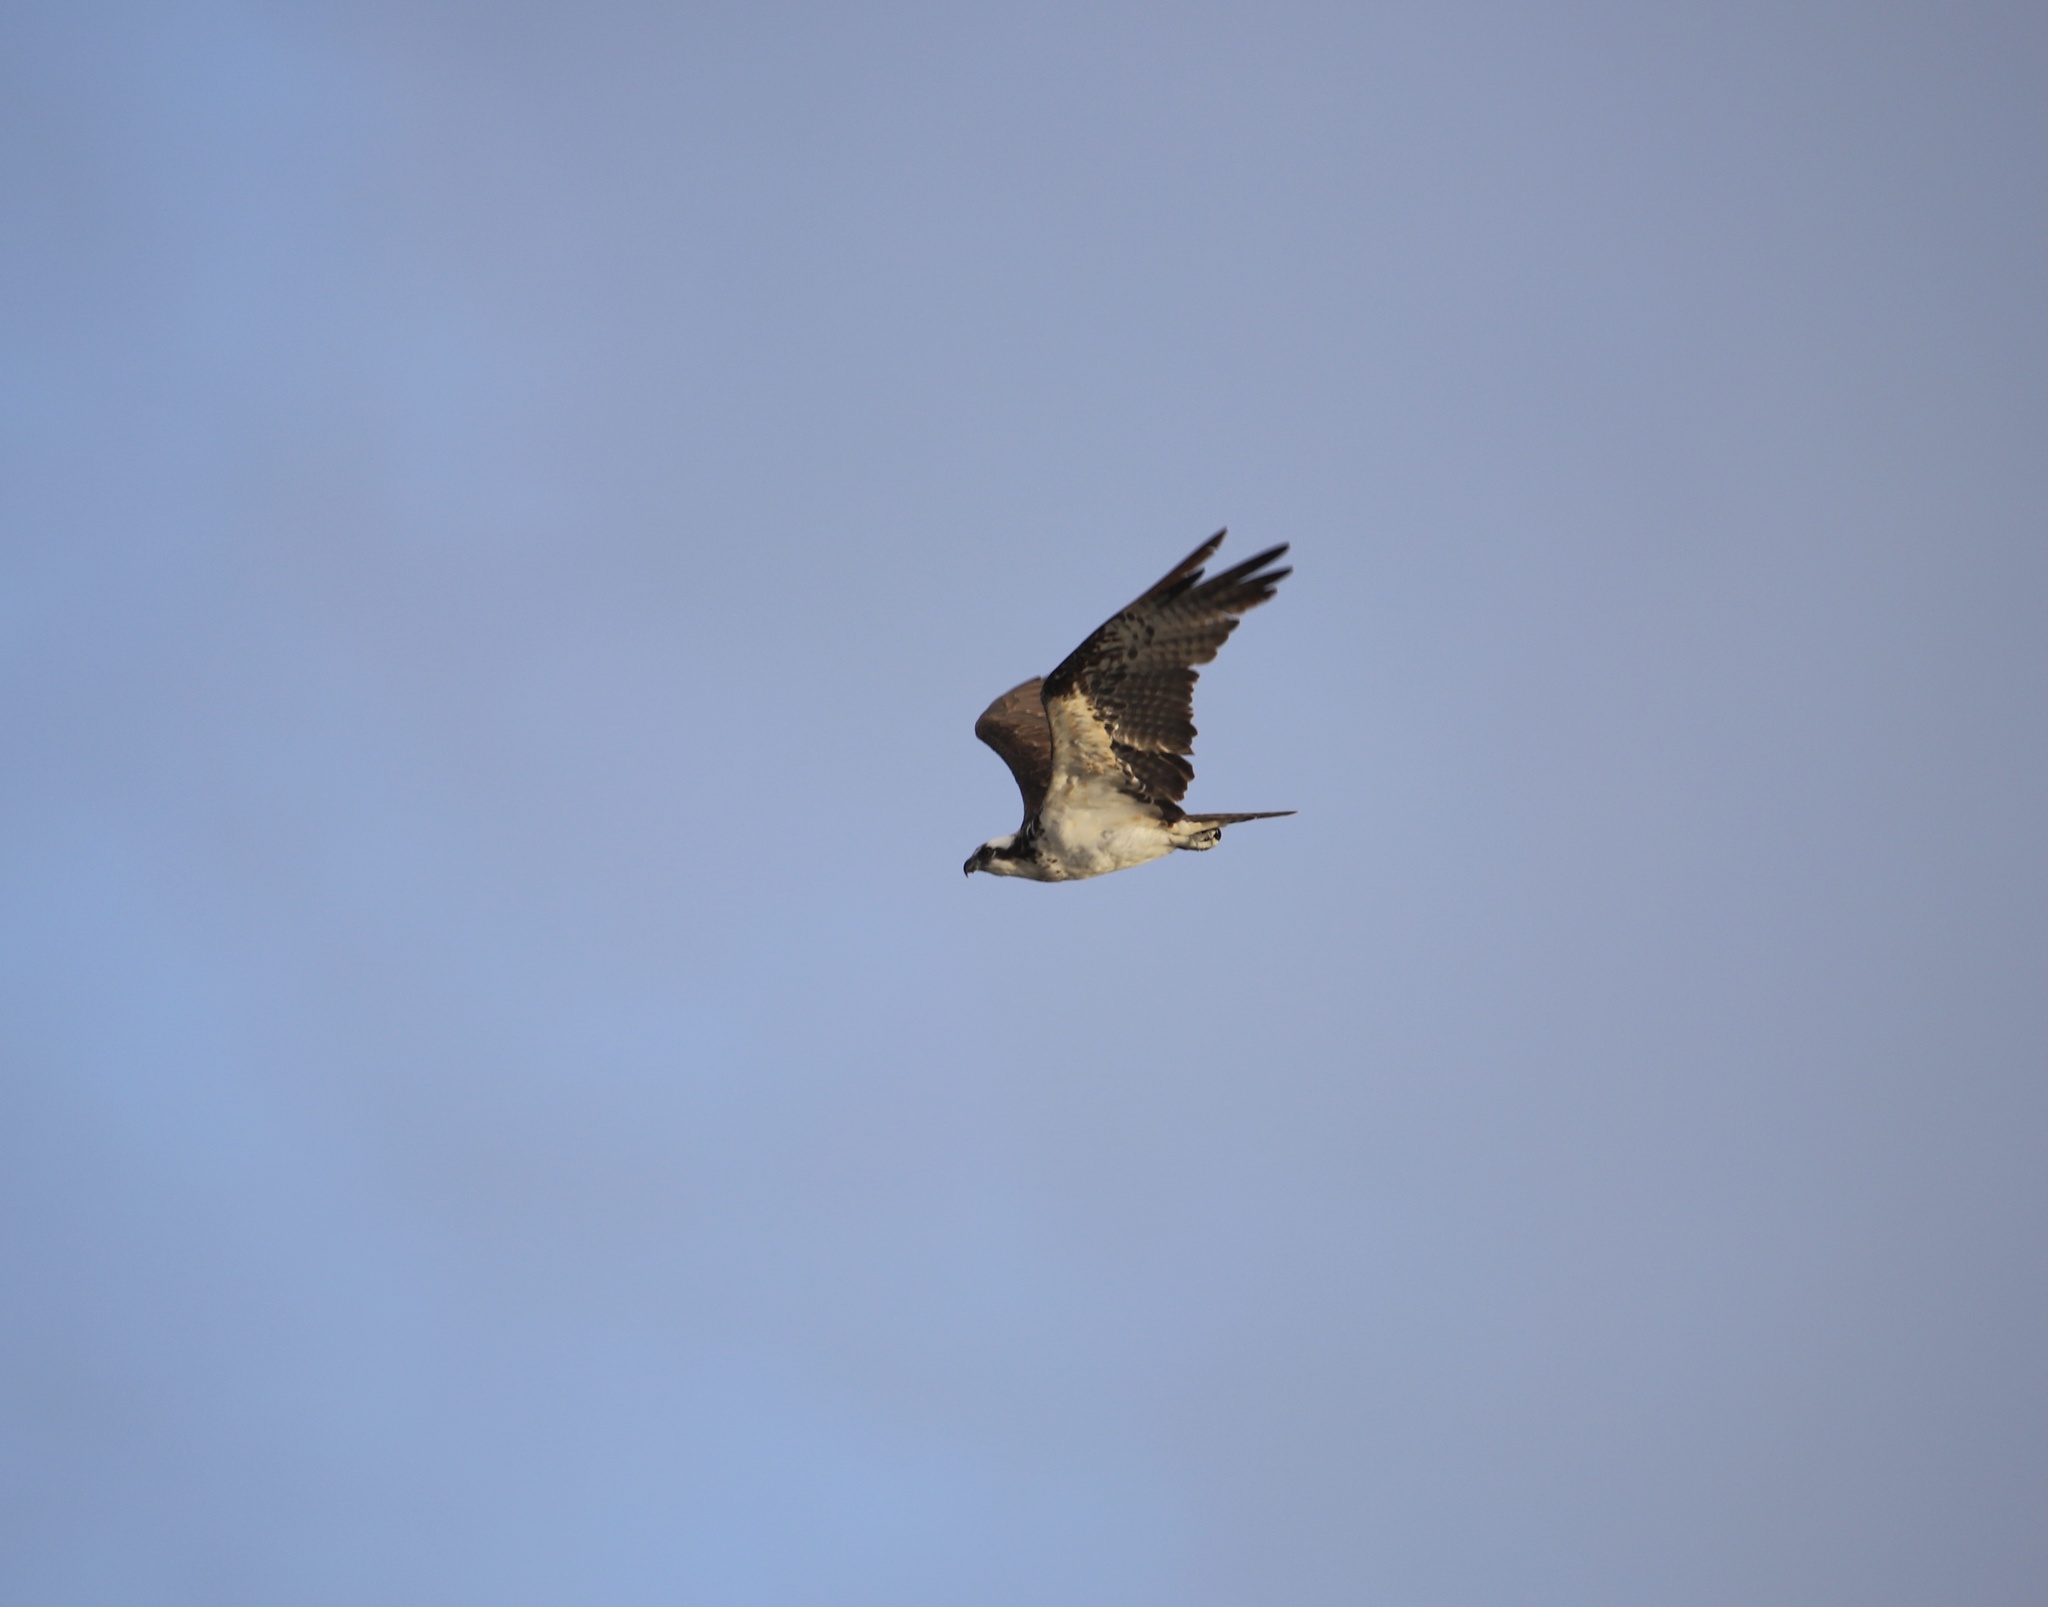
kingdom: Animalia
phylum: Chordata
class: Aves
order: Accipitriformes
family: Pandionidae
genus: Pandion
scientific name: Pandion haliaetus
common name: Osprey
